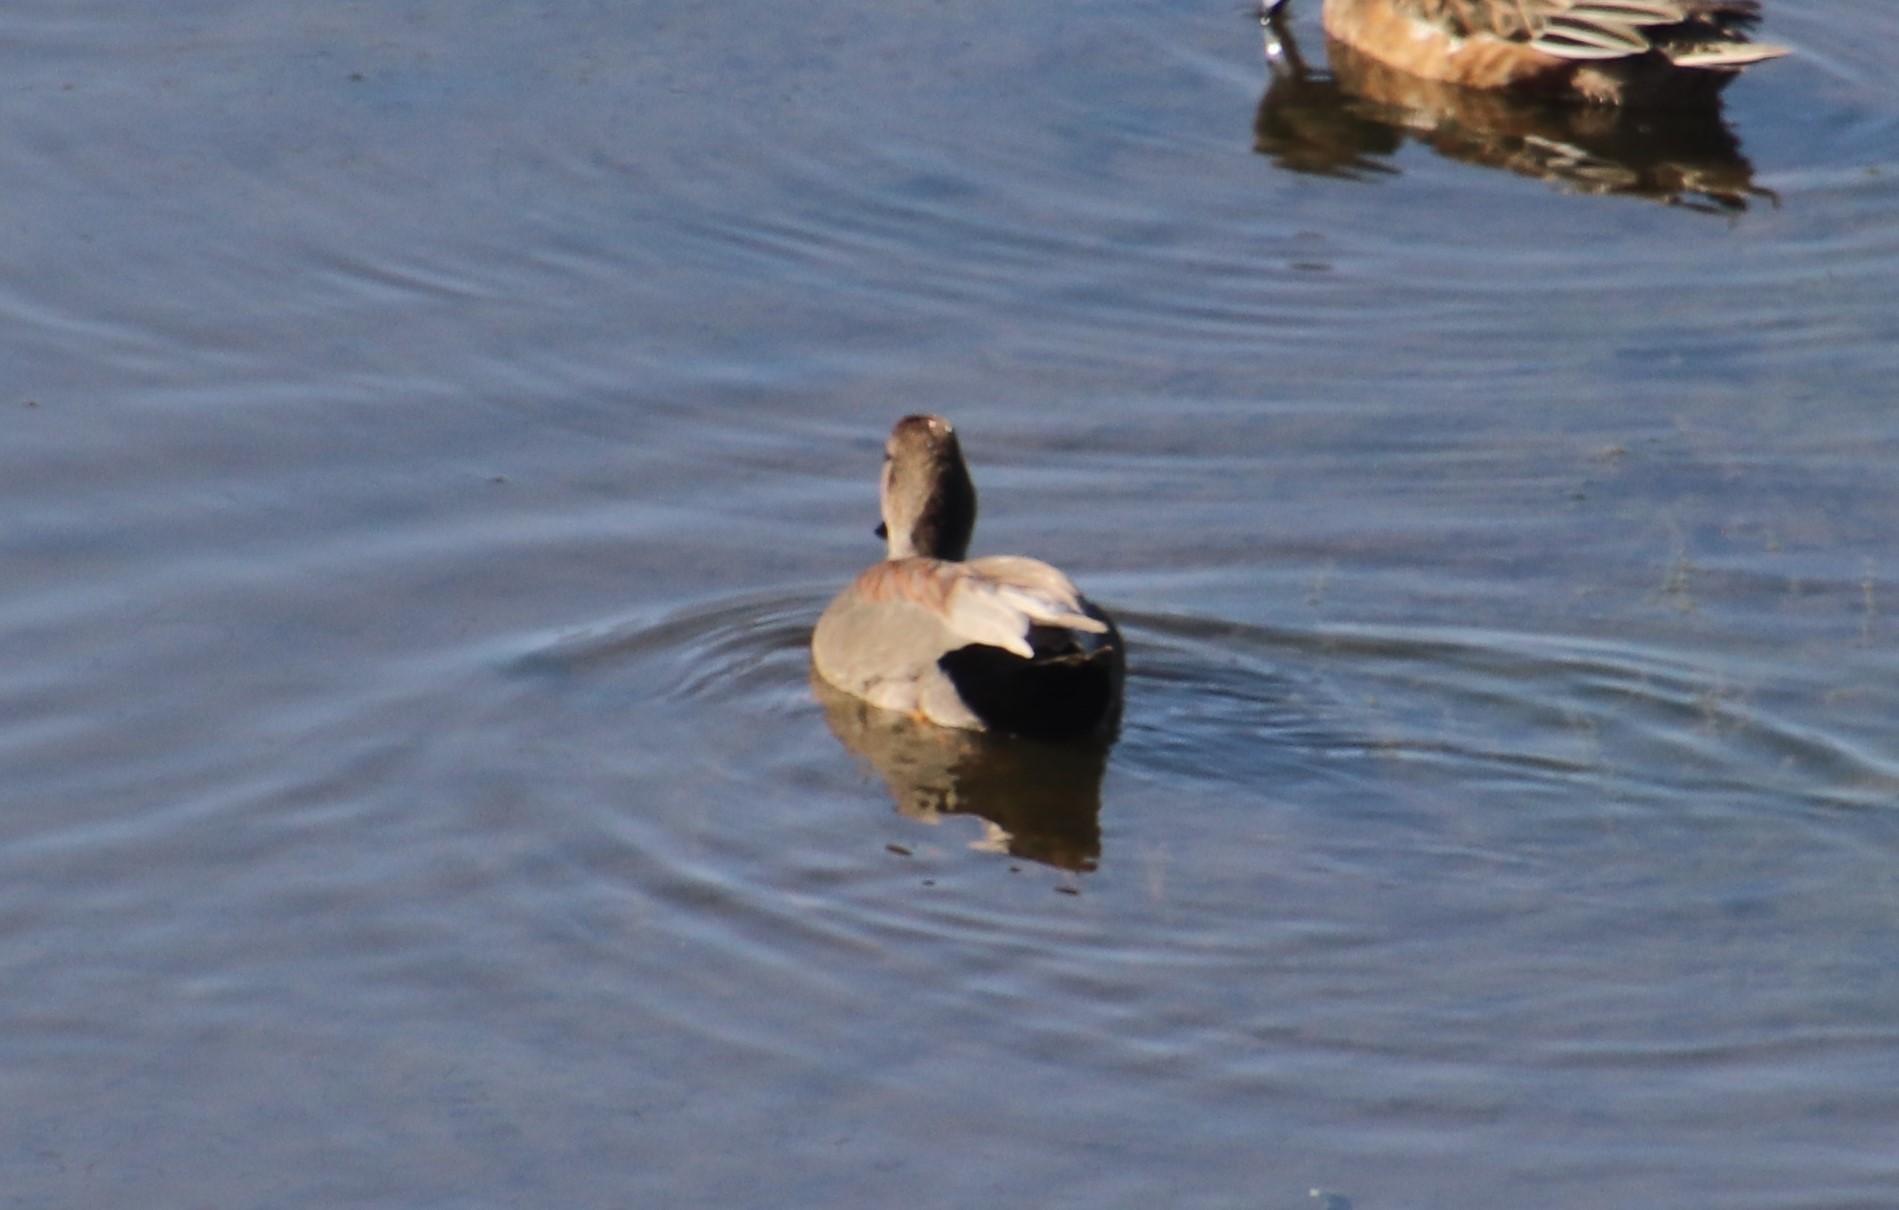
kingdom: Animalia
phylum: Chordata
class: Aves
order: Anseriformes
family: Anatidae
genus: Mareca
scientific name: Mareca strepera
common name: Gadwall
